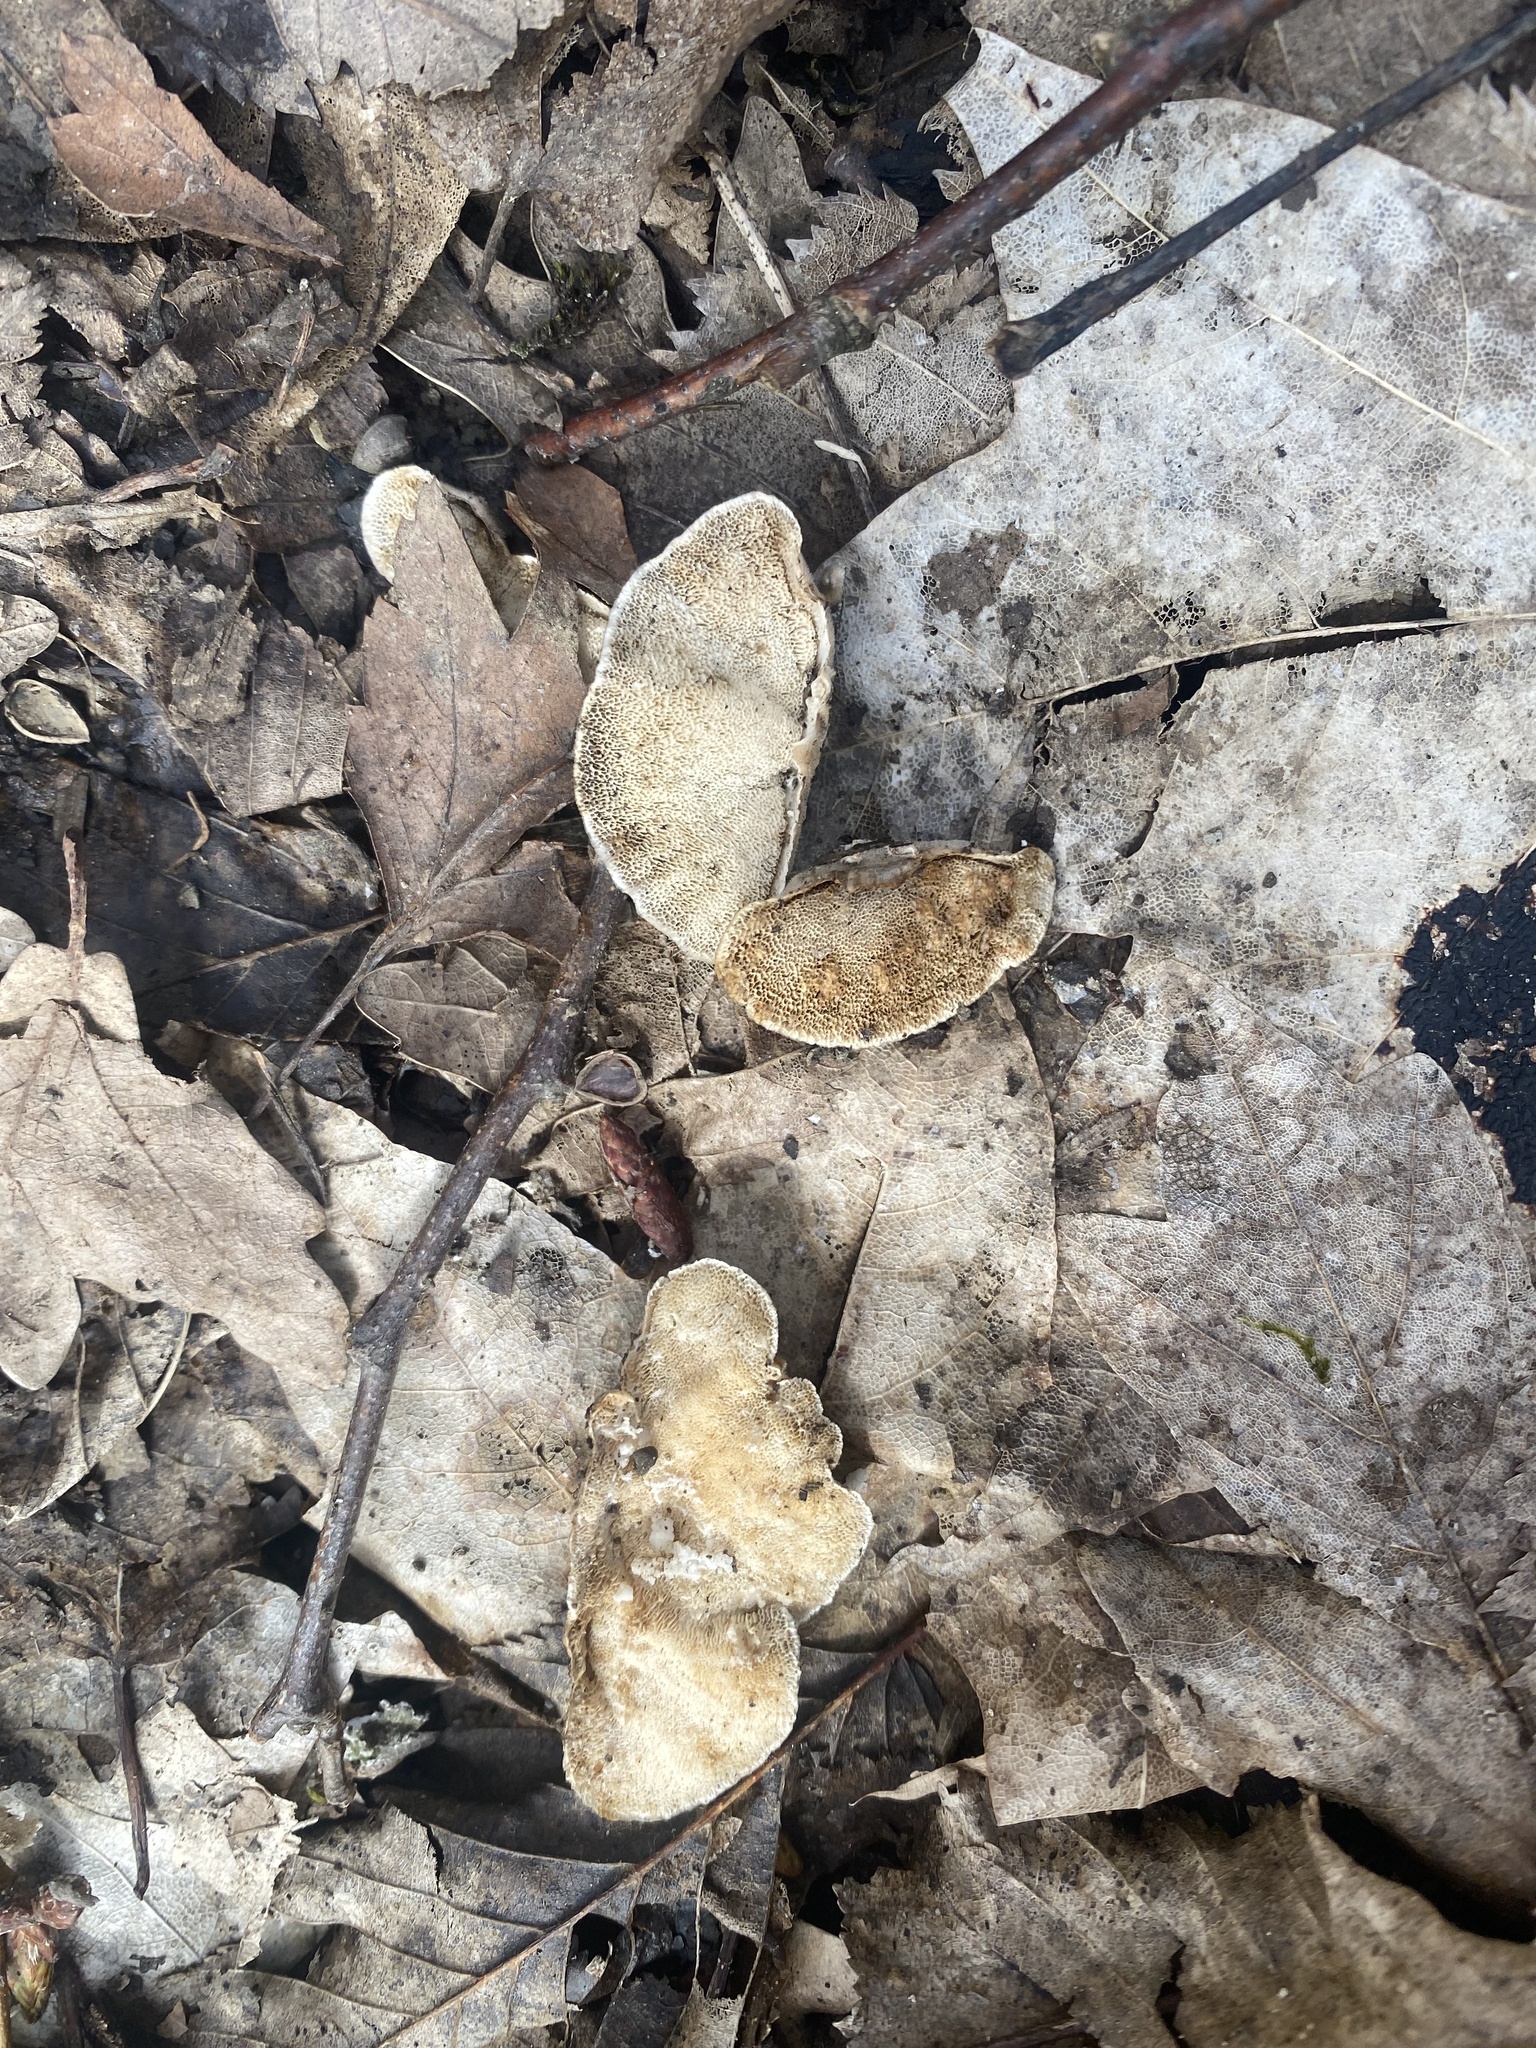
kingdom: Fungi
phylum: Basidiomycota
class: Agaricomycetes
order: Polyporales
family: Polyporaceae
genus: Trametes
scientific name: Trametes versicolor
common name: Turkeytail
